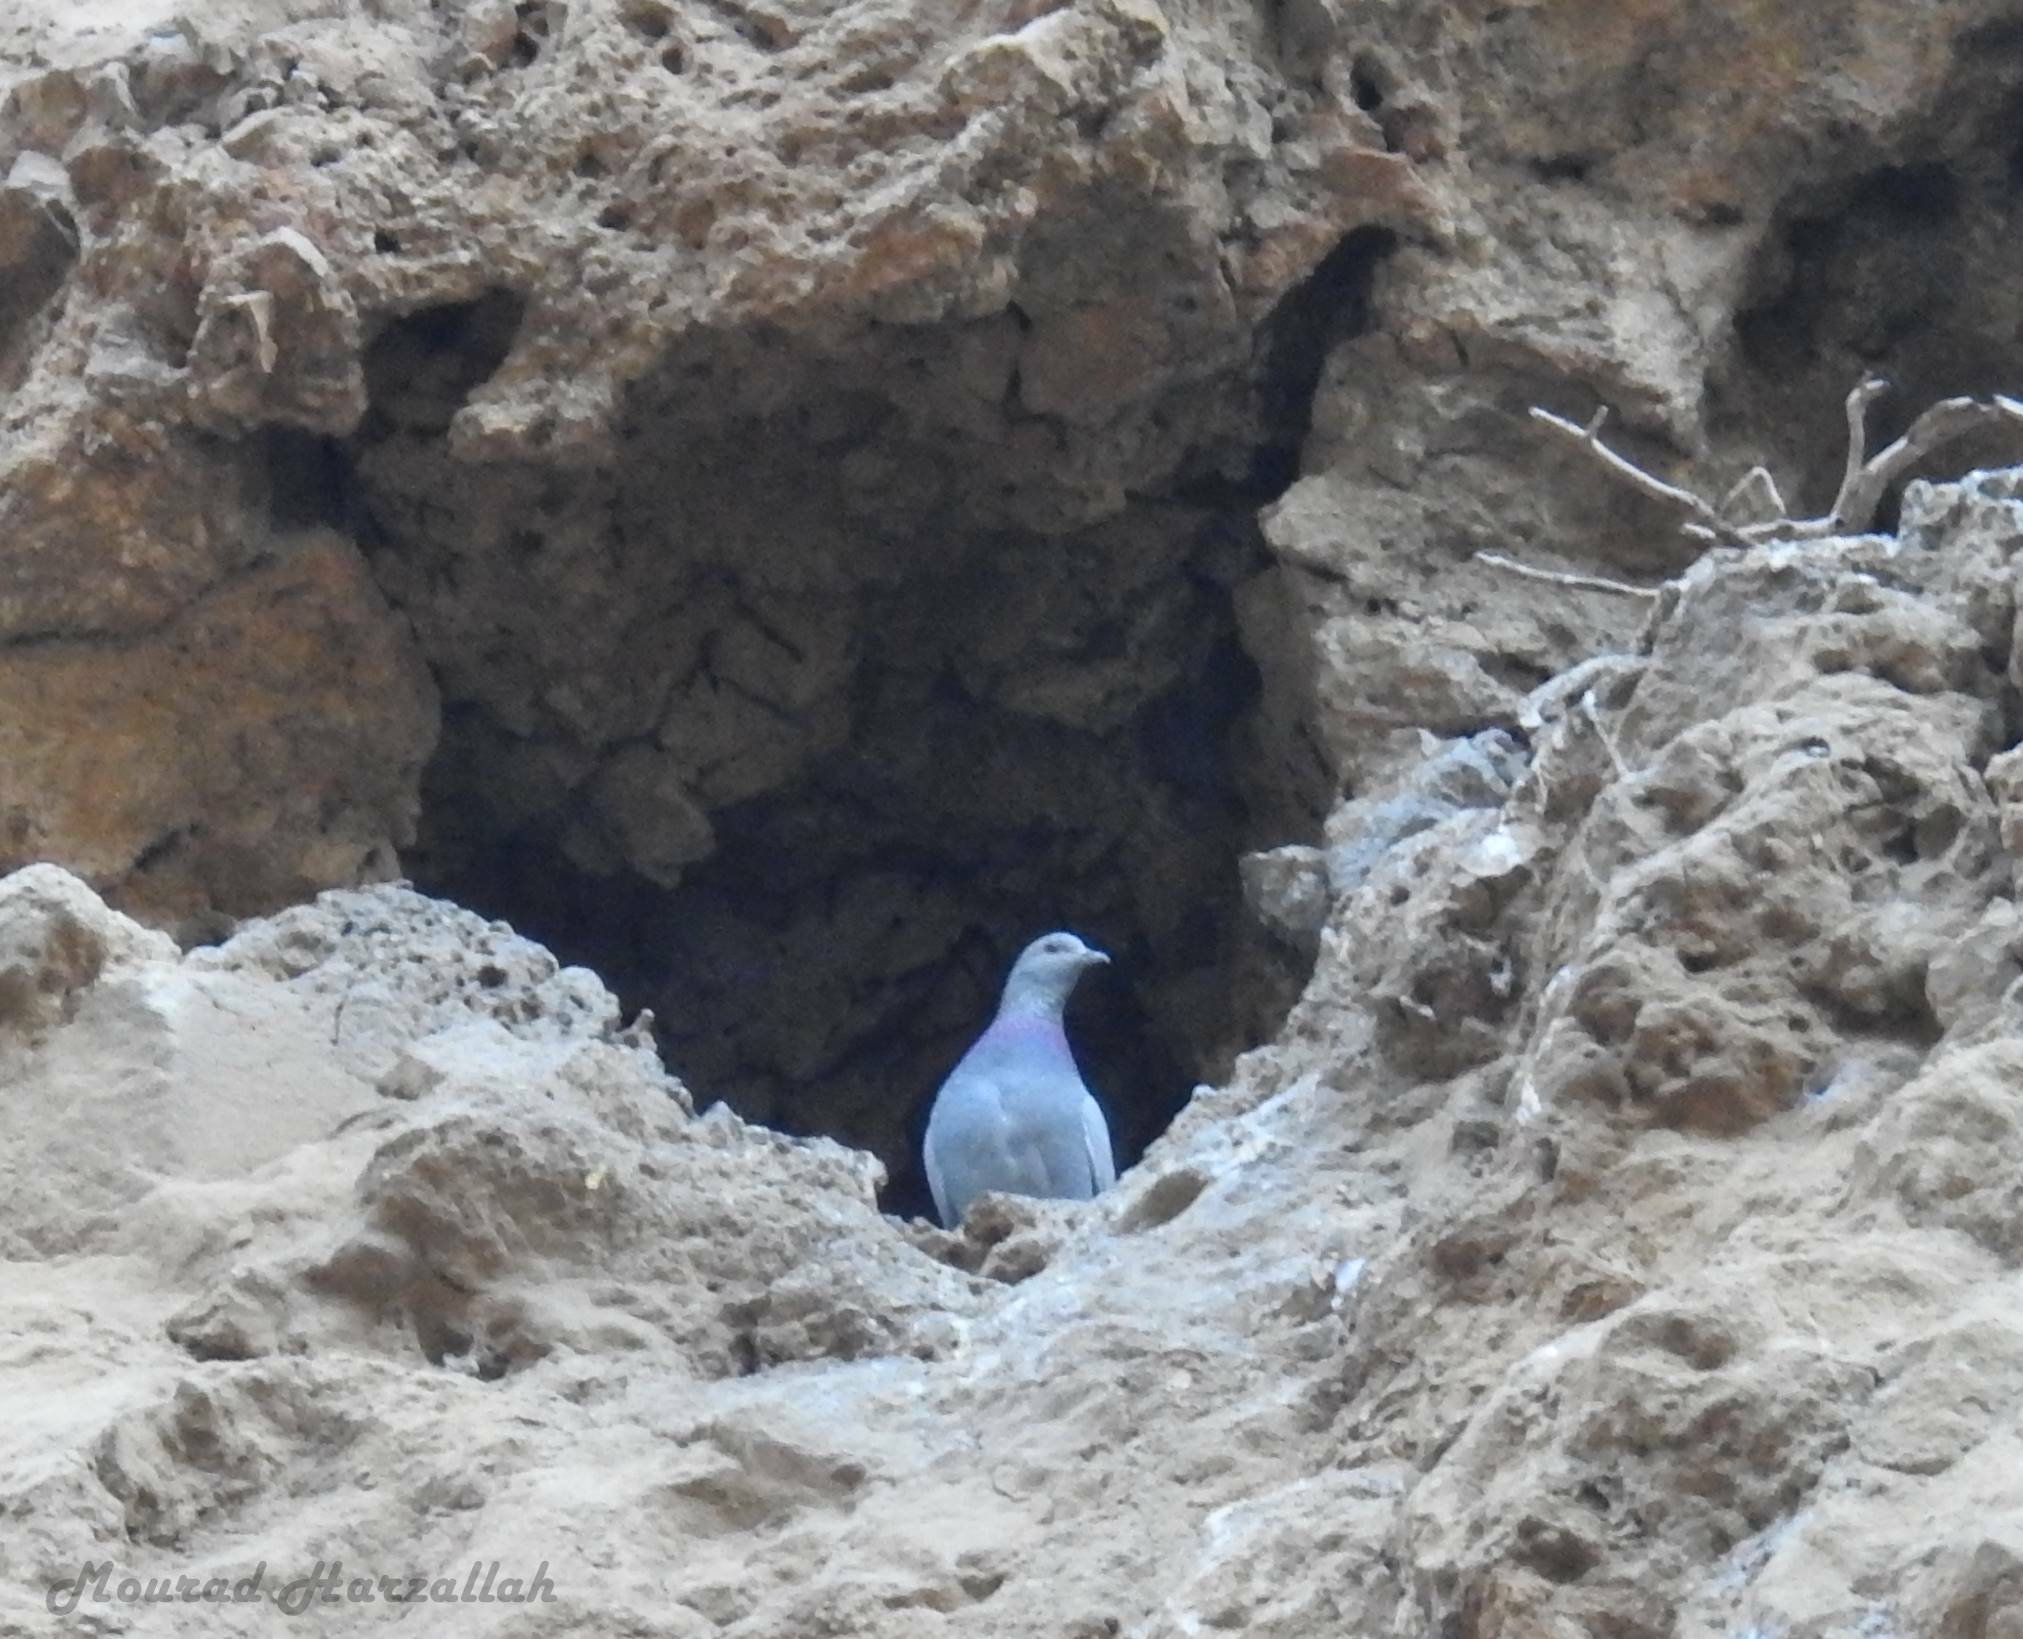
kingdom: Animalia
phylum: Chordata
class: Aves
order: Columbiformes
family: Columbidae
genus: Columba
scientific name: Columba oenas
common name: Stock dove
